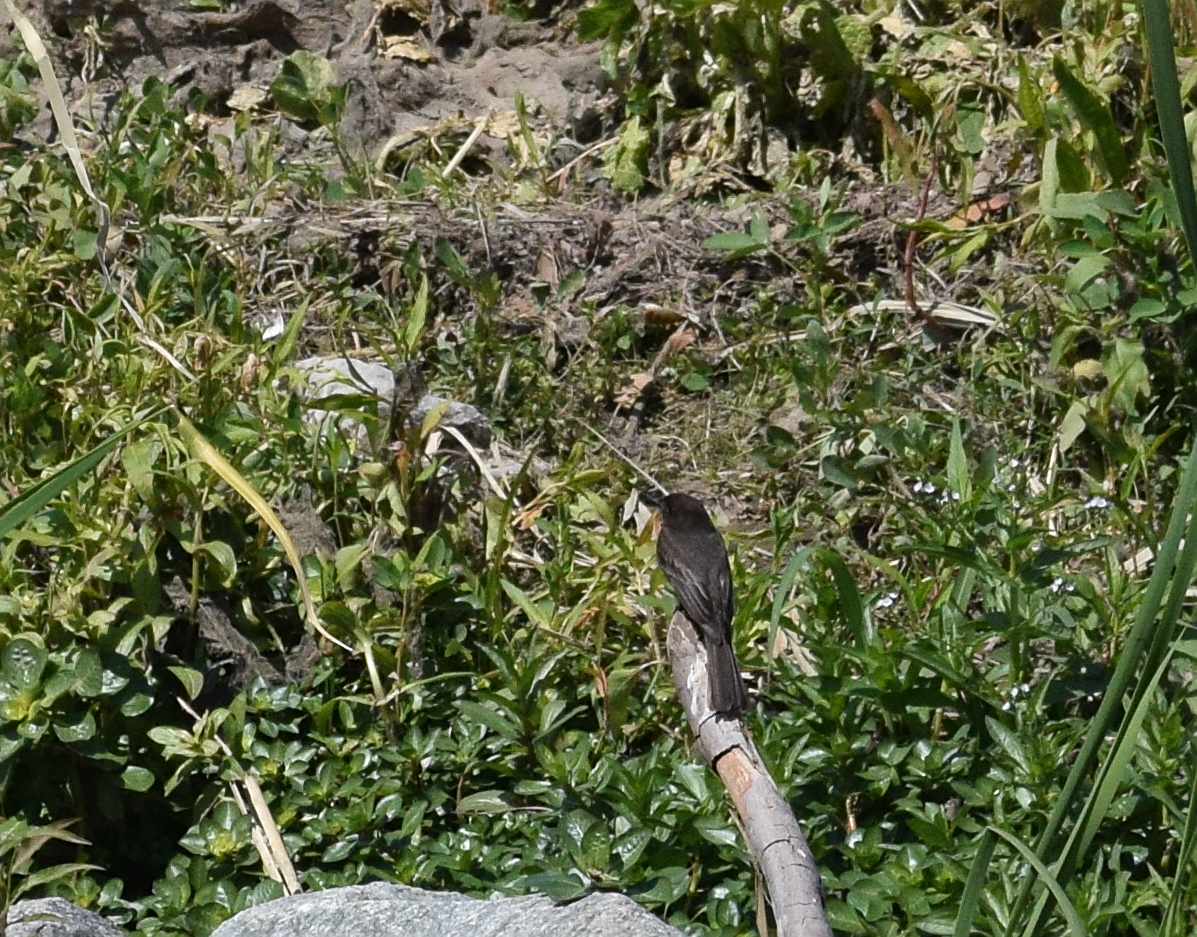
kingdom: Animalia
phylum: Chordata
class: Aves
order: Passeriformes
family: Tyrannidae
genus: Sayornis
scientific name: Sayornis nigricans
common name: Black phoebe
